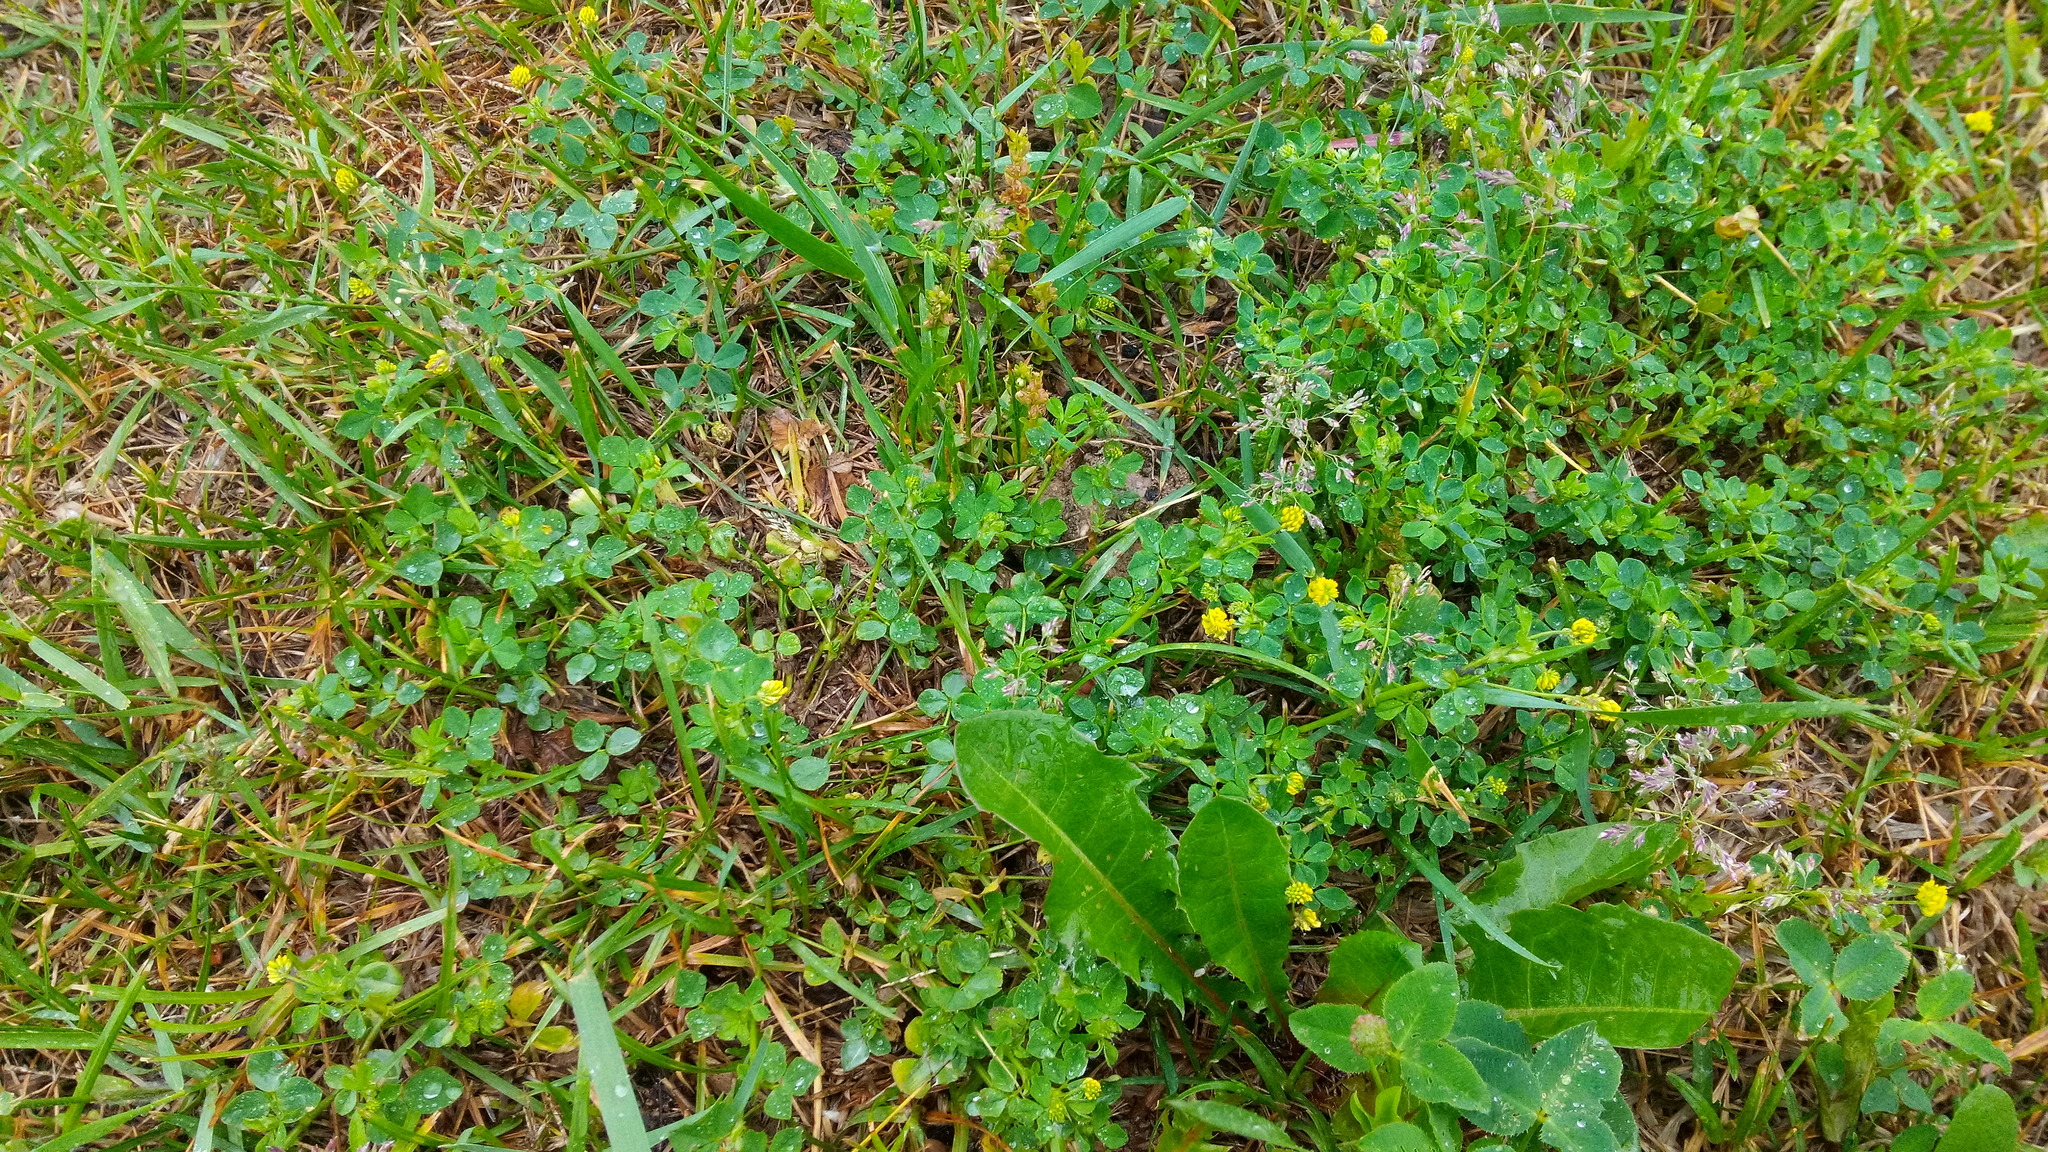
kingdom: Plantae
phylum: Tracheophyta
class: Magnoliopsida
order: Fabales
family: Fabaceae
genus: Medicago
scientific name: Medicago lupulina
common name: Black medick
